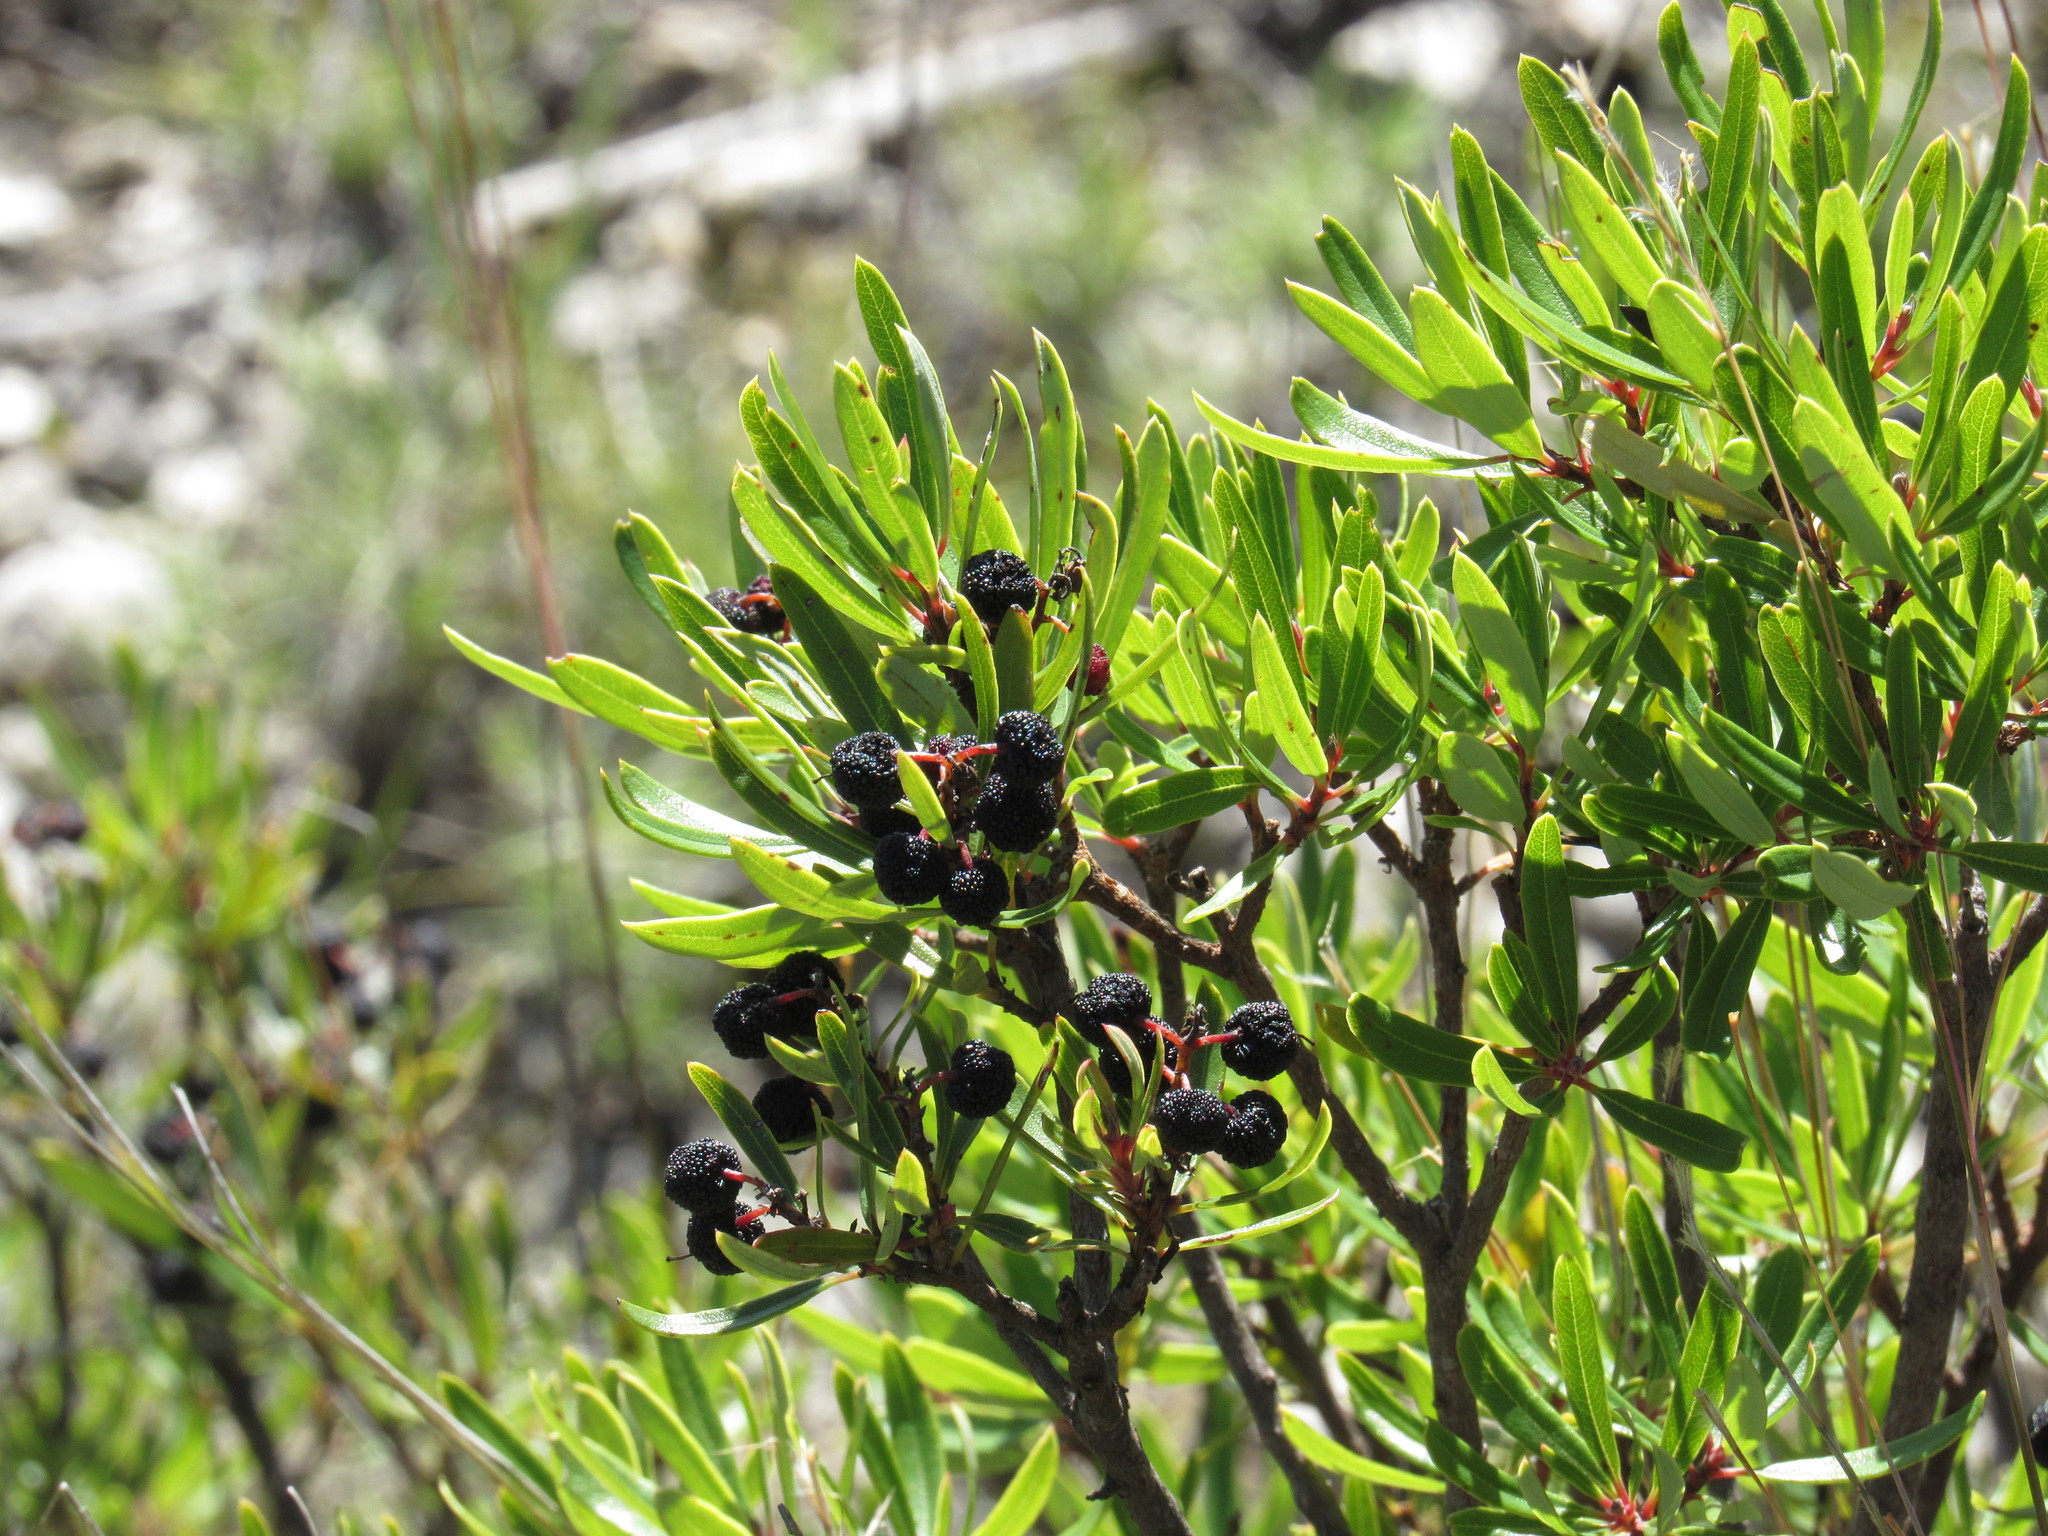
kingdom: Plantae
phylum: Tracheophyta
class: Magnoliopsida
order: Ericales
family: Ericaceae
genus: Comarostaphylis
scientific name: Comarostaphylis polifolia
